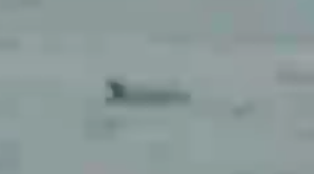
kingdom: Animalia
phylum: Chordata
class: Mammalia
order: Cetacea
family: Delphinidae
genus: Tursiops
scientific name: Tursiops truncatus
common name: Bottlenose dolphin
